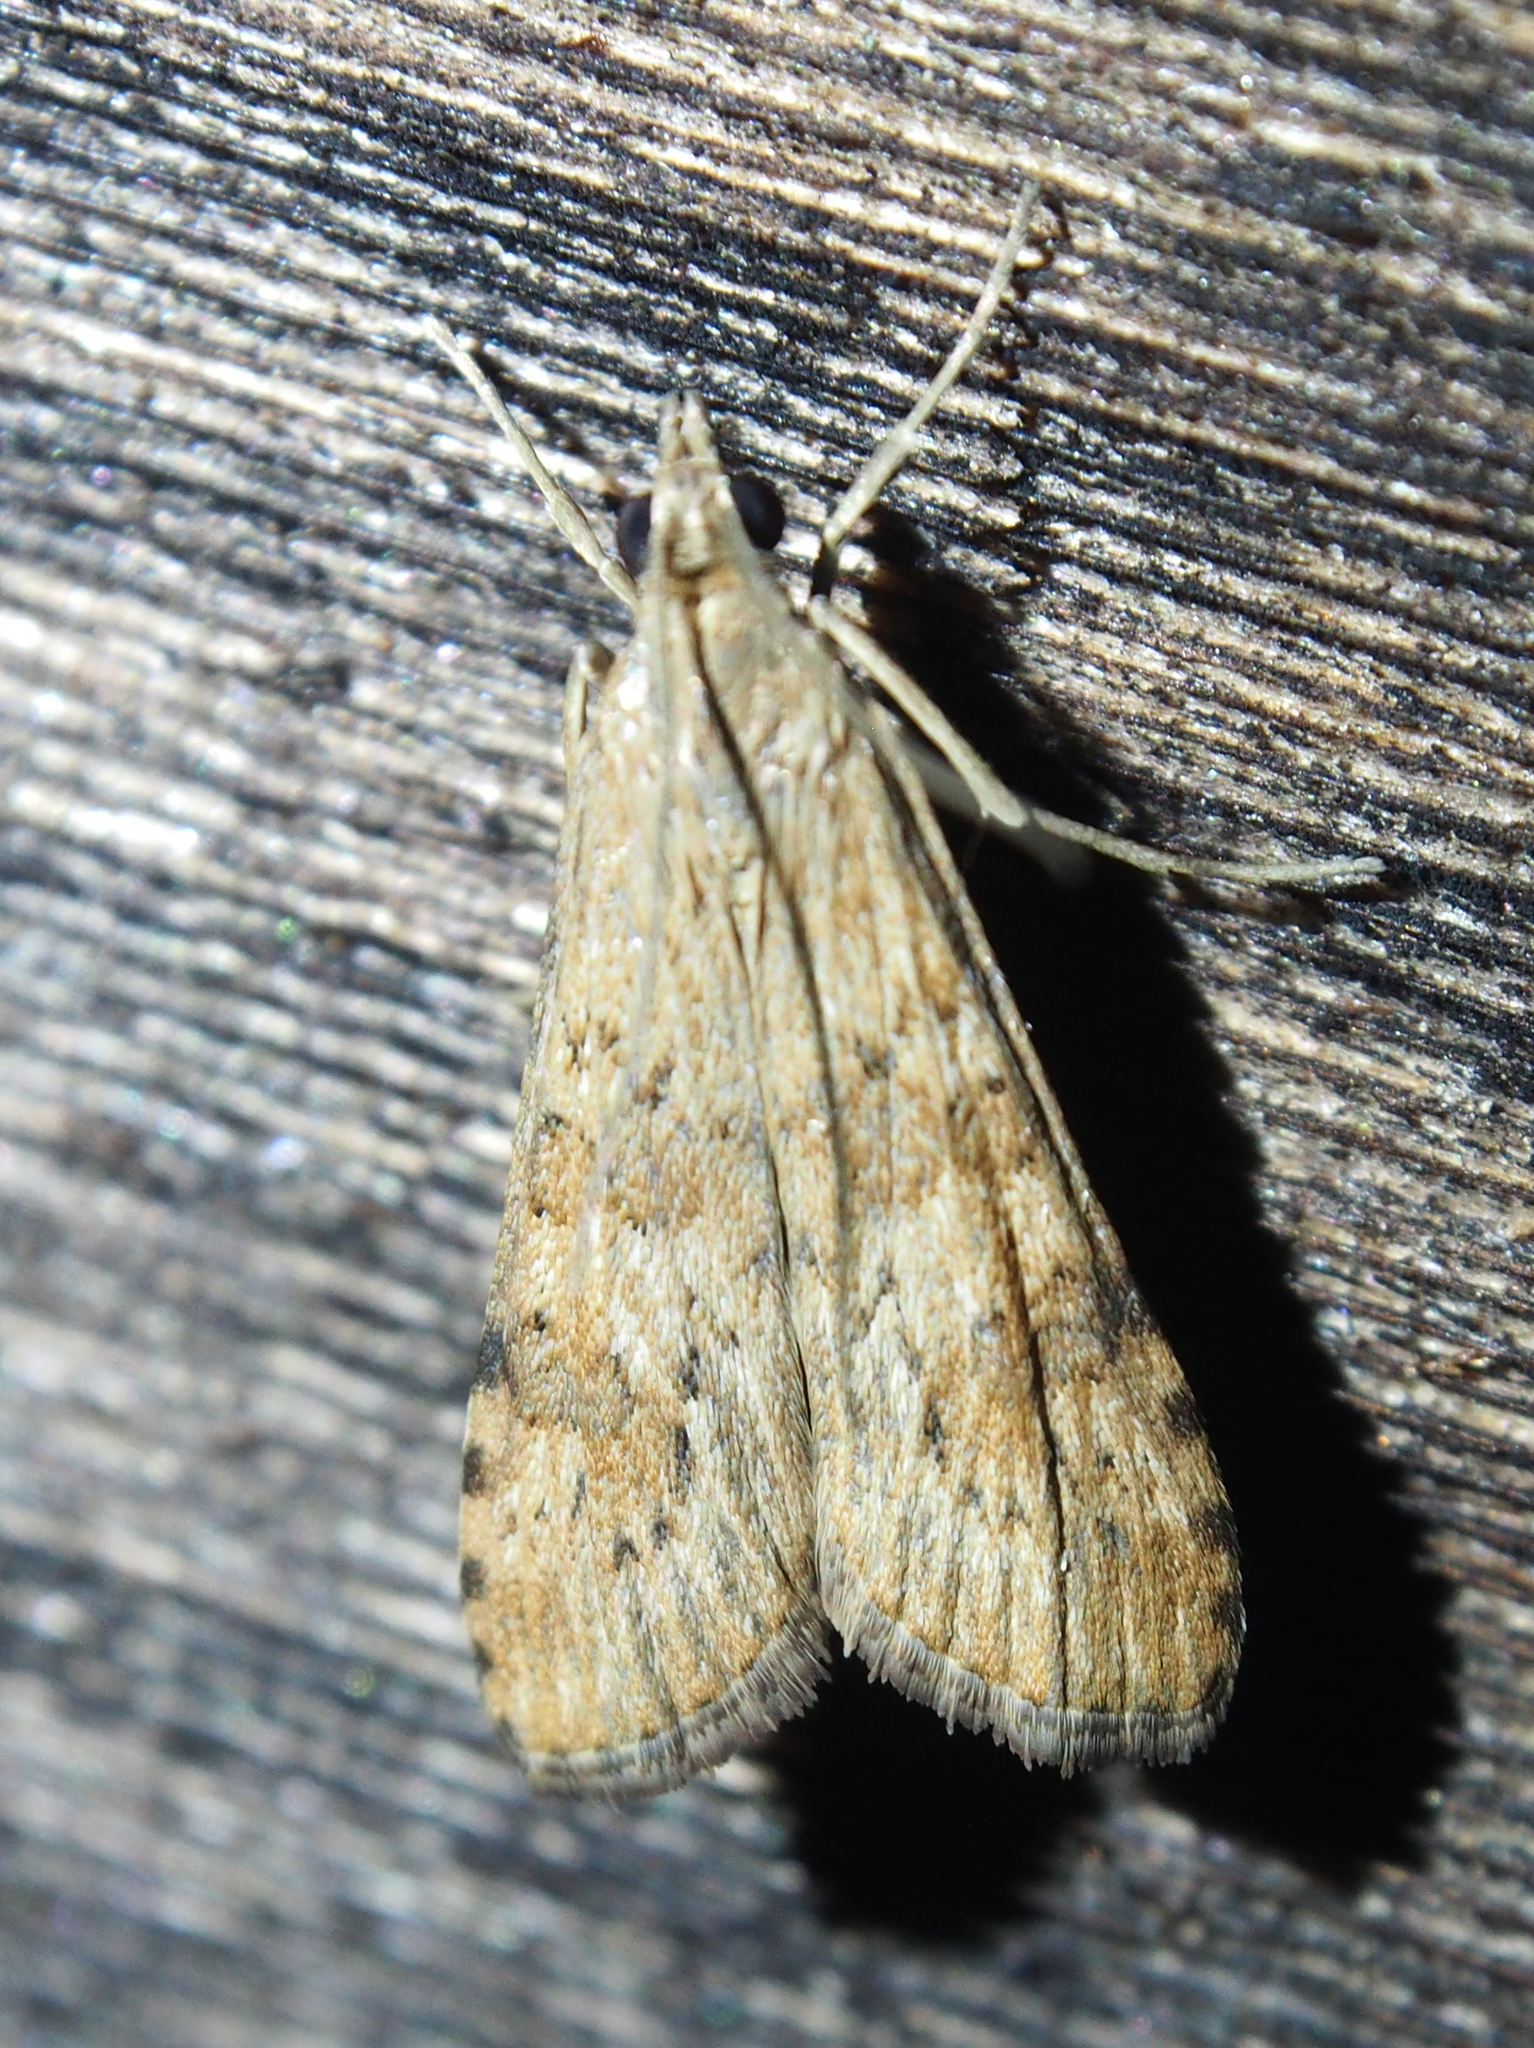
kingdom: Animalia
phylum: Arthropoda
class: Insecta
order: Lepidoptera
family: Crambidae
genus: Nomophila
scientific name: Nomophila nearctica
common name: American rush veneer
